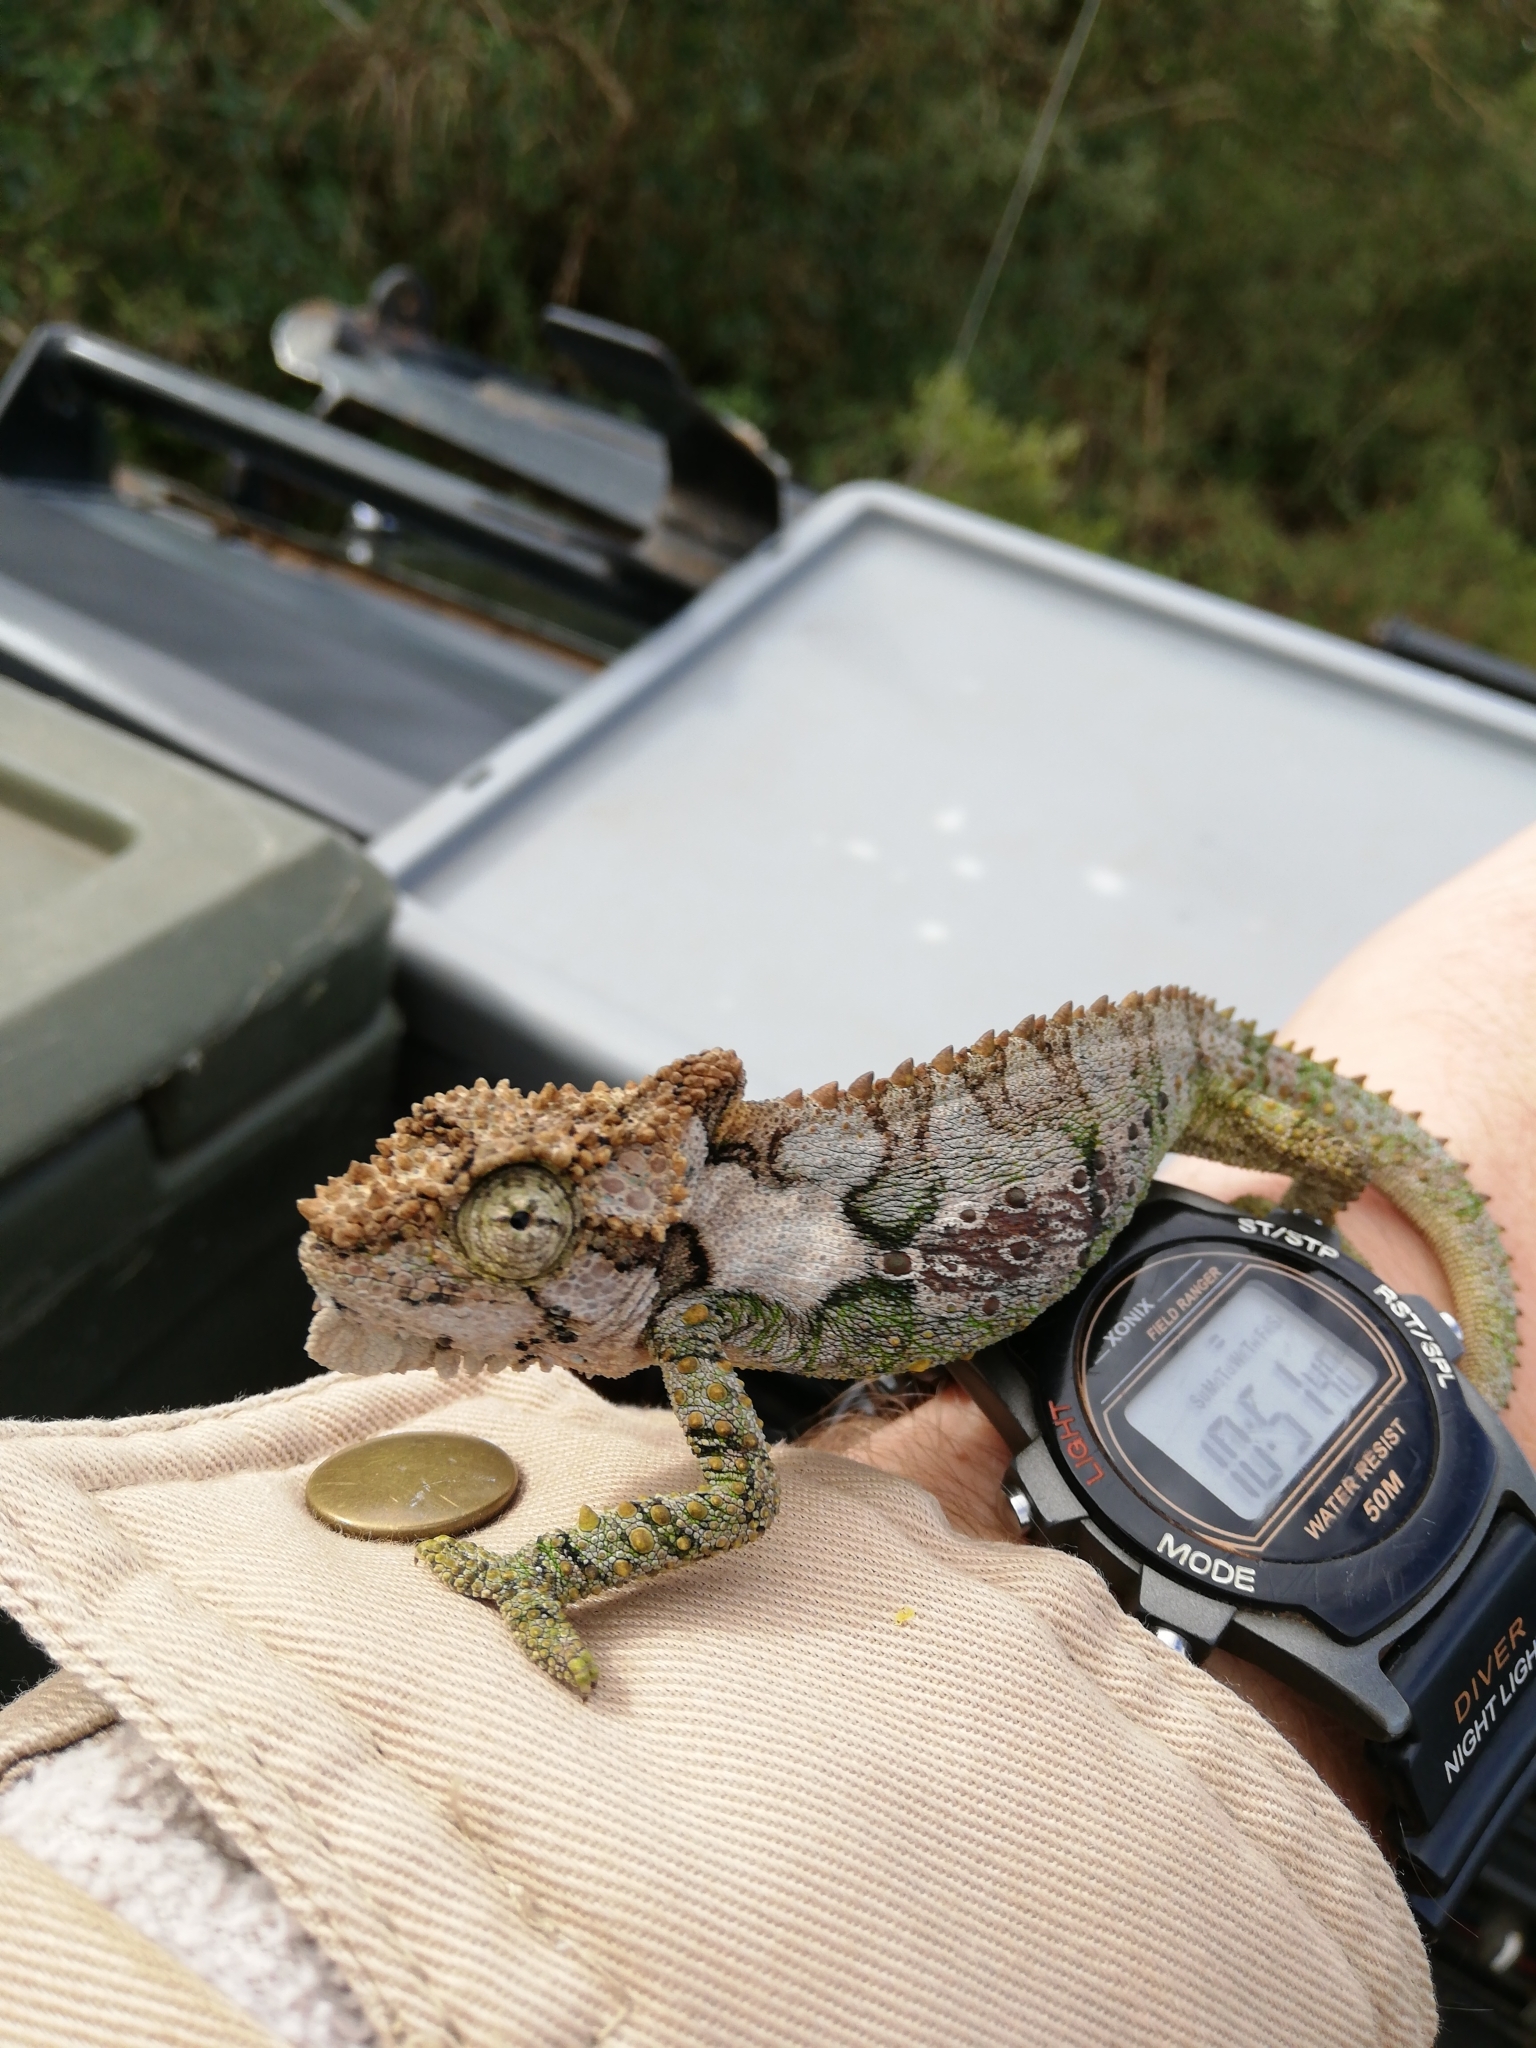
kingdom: Animalia
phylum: Chordata
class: Squamata
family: Chamaeleonidae
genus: Bradypodion
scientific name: Bradypodion ventrale
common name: Eastern cape dwarf chameleon
